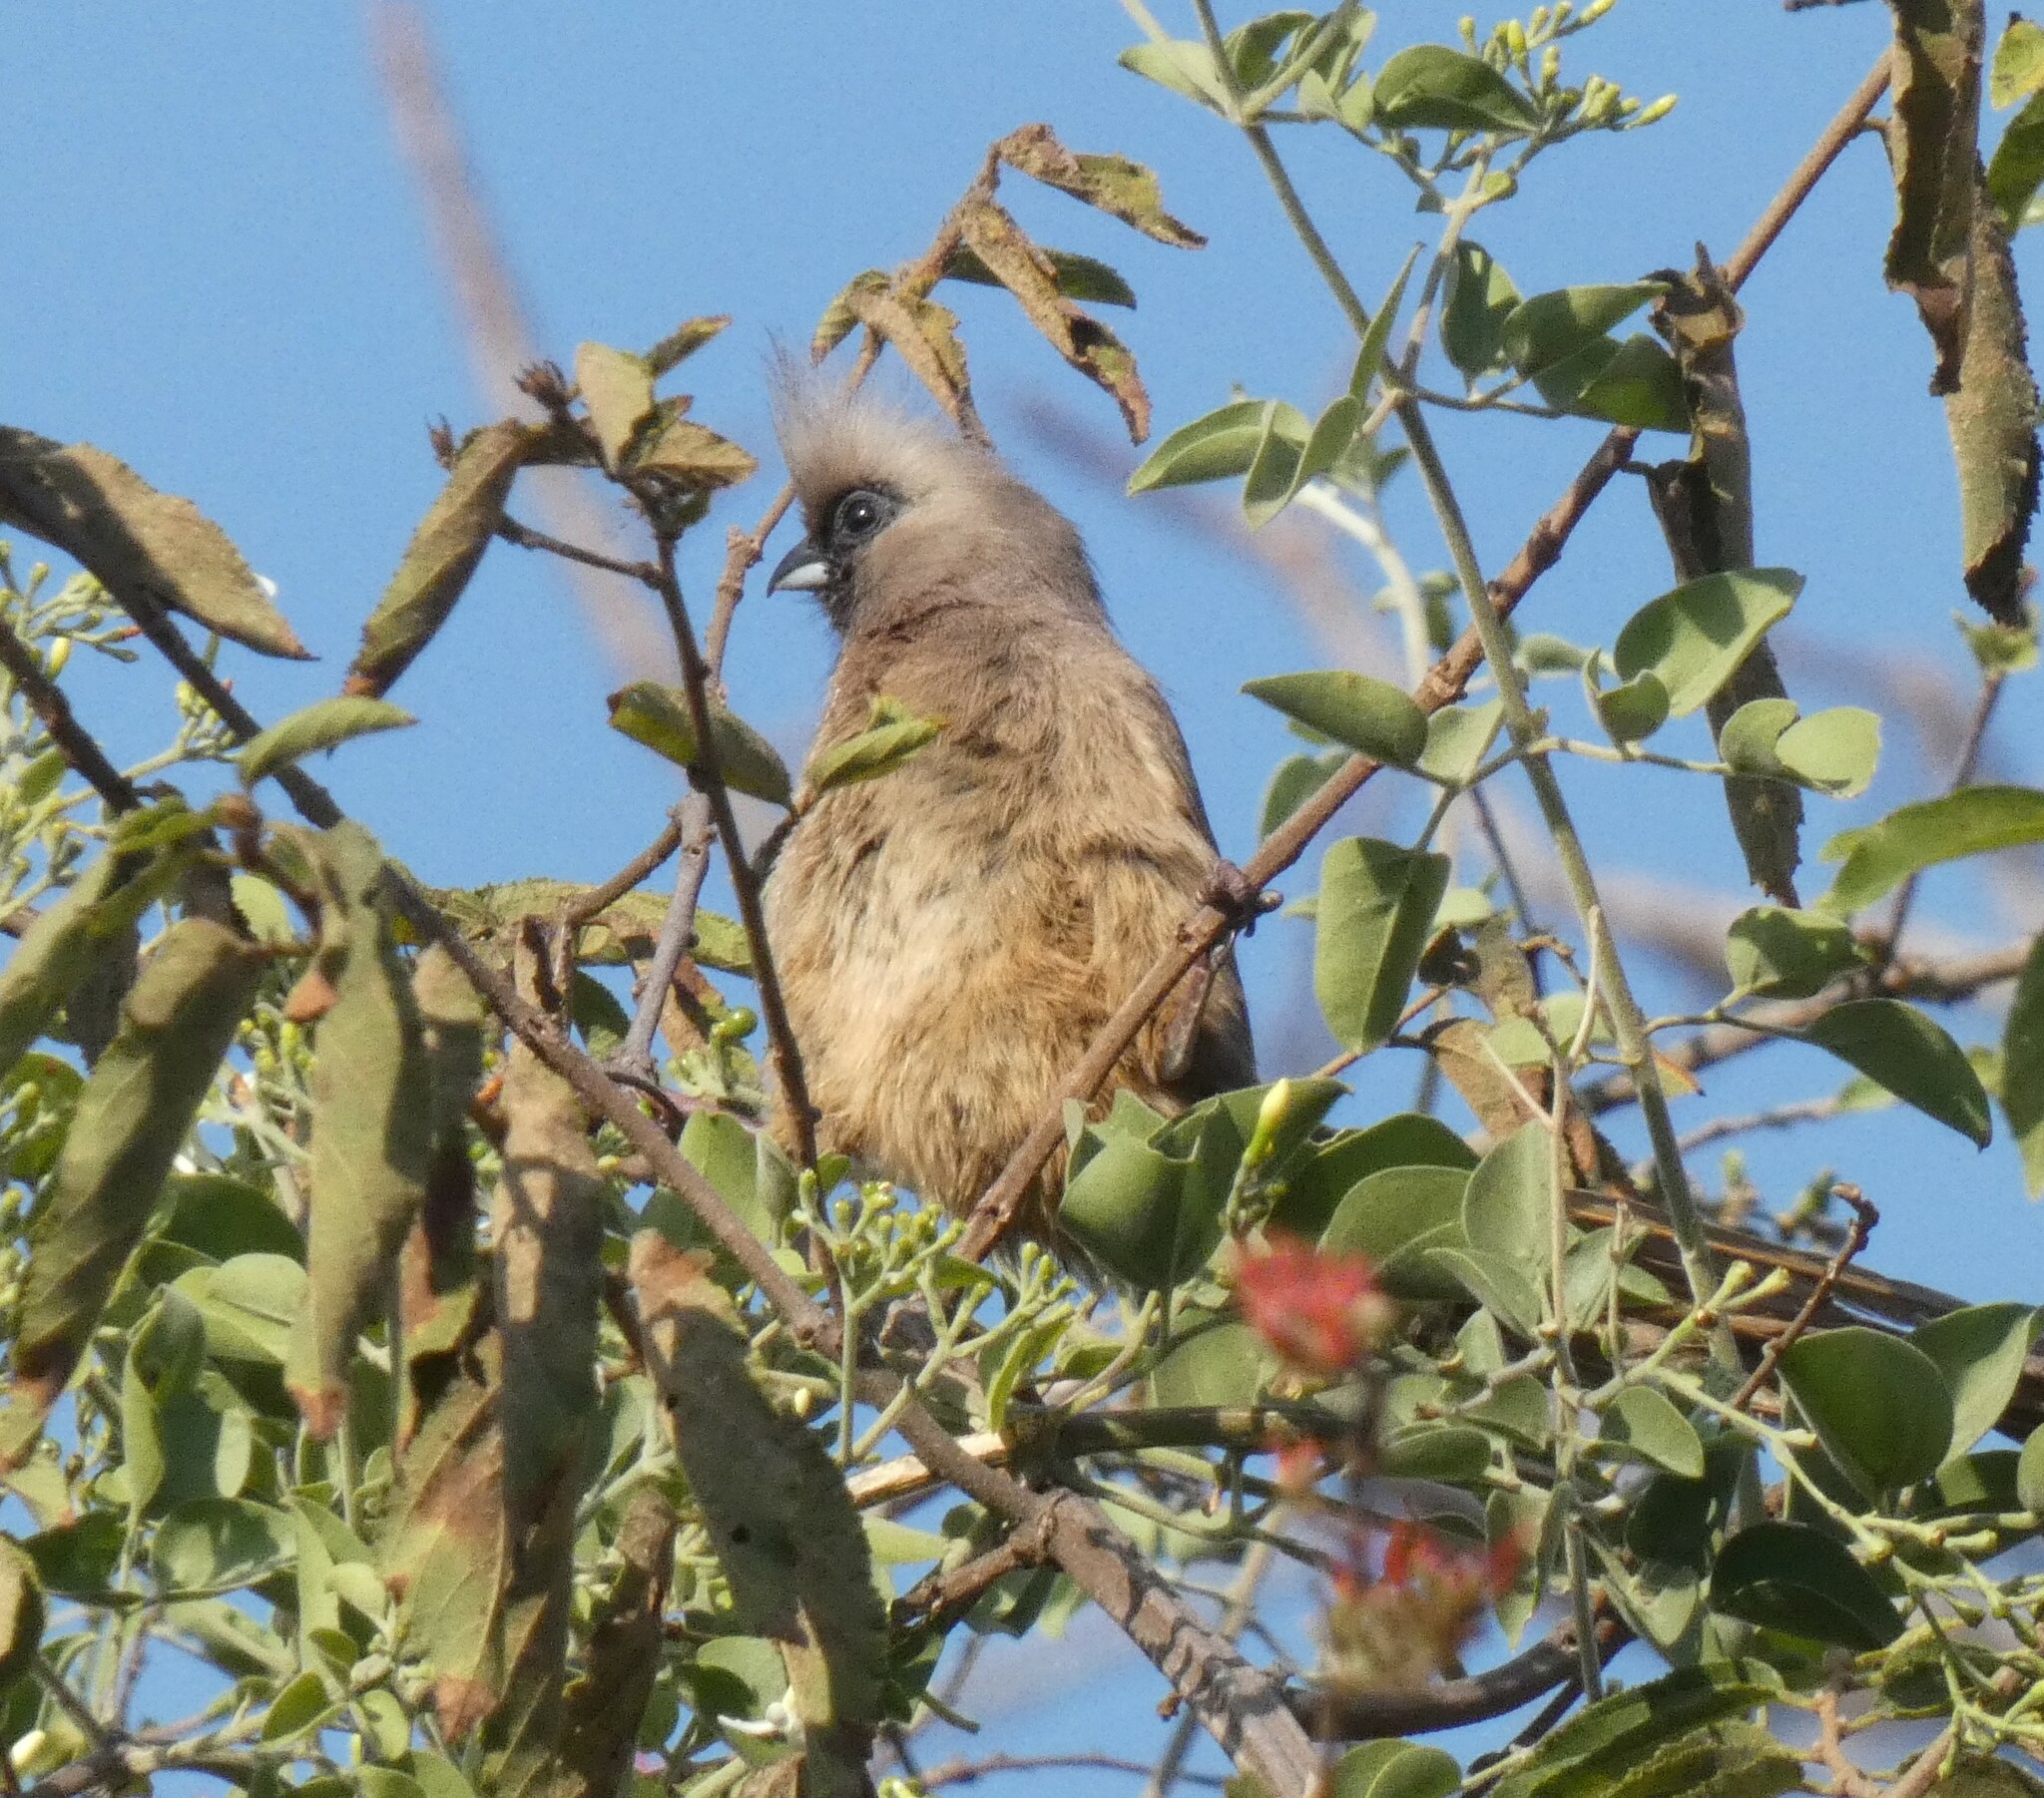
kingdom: Animalia
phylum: Chordata
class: Aves
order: Coliiformes
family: Coliidae
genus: Colius
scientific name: Colius striatus
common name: Speckled mousebird
